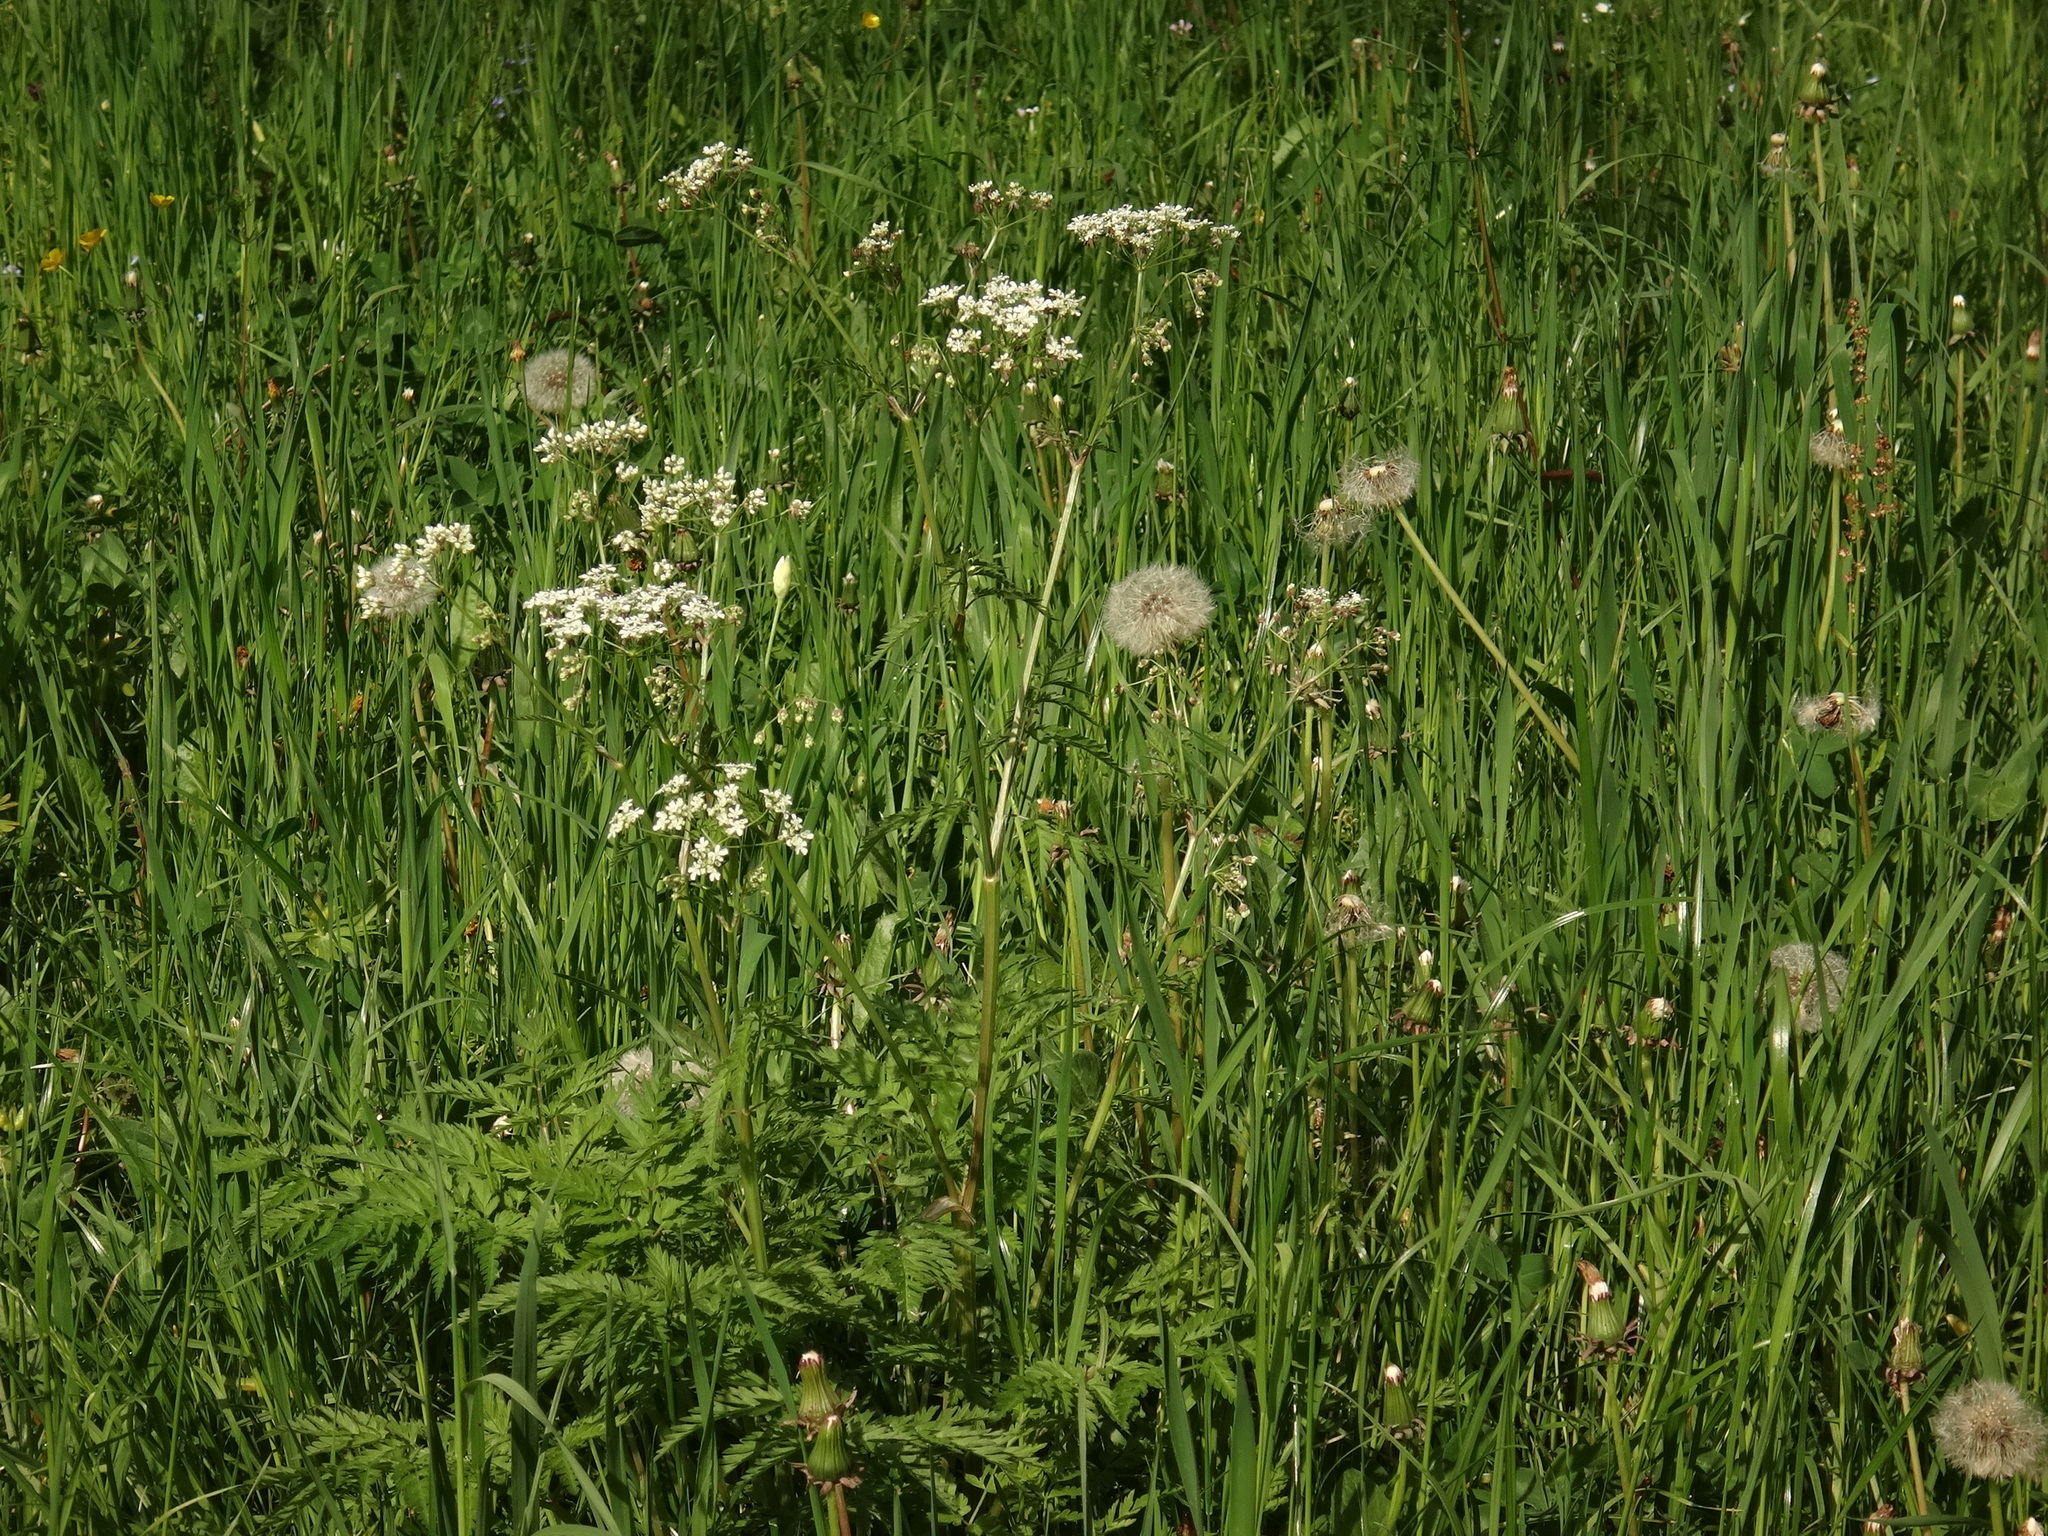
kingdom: Plantae
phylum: Tracheophyta
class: Magnoliopsida
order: Apiales
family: Apiaceae
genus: Anthriscus
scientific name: Anthriscus sylvestris
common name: Cow parsley
